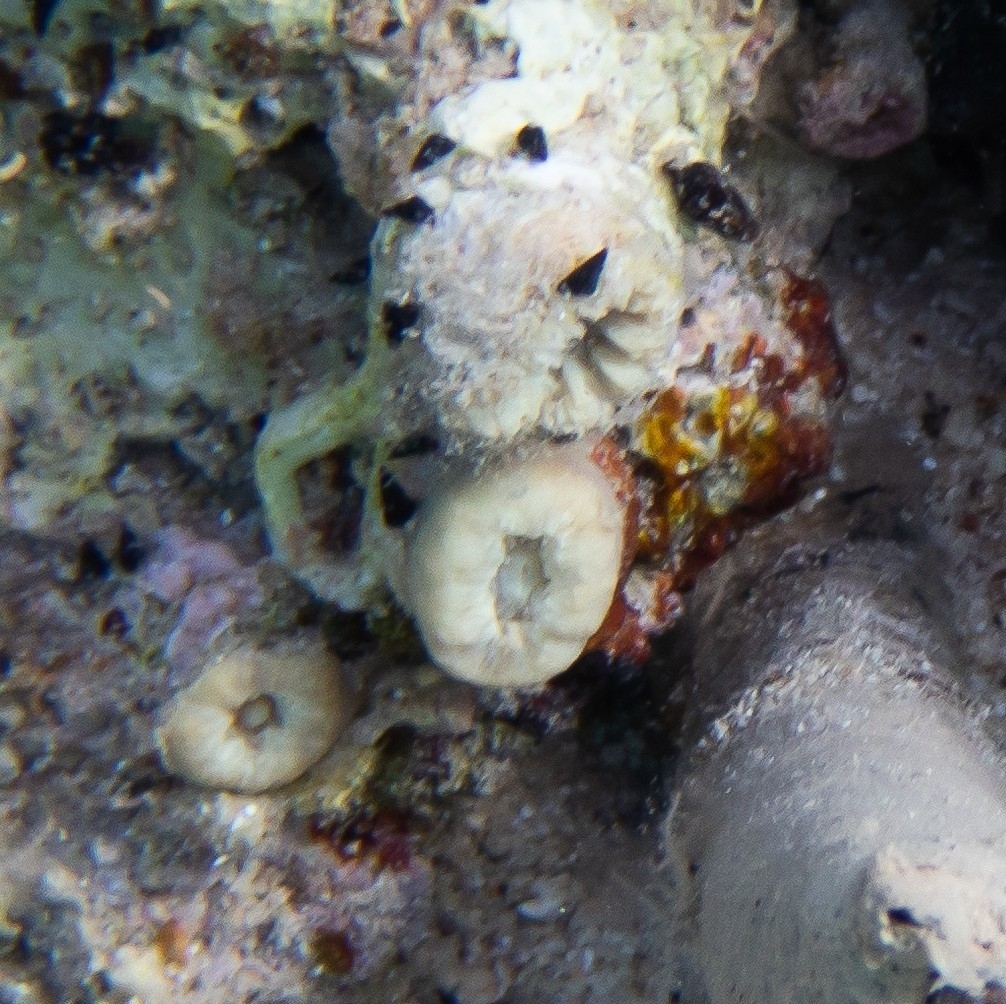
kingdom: Animalia
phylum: Cnidaria
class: Anthozoa
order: Scleractinia
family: Dendrophylliidae
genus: Balanophyllia
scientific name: Balanophyllia europaea
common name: Scarlet coral
